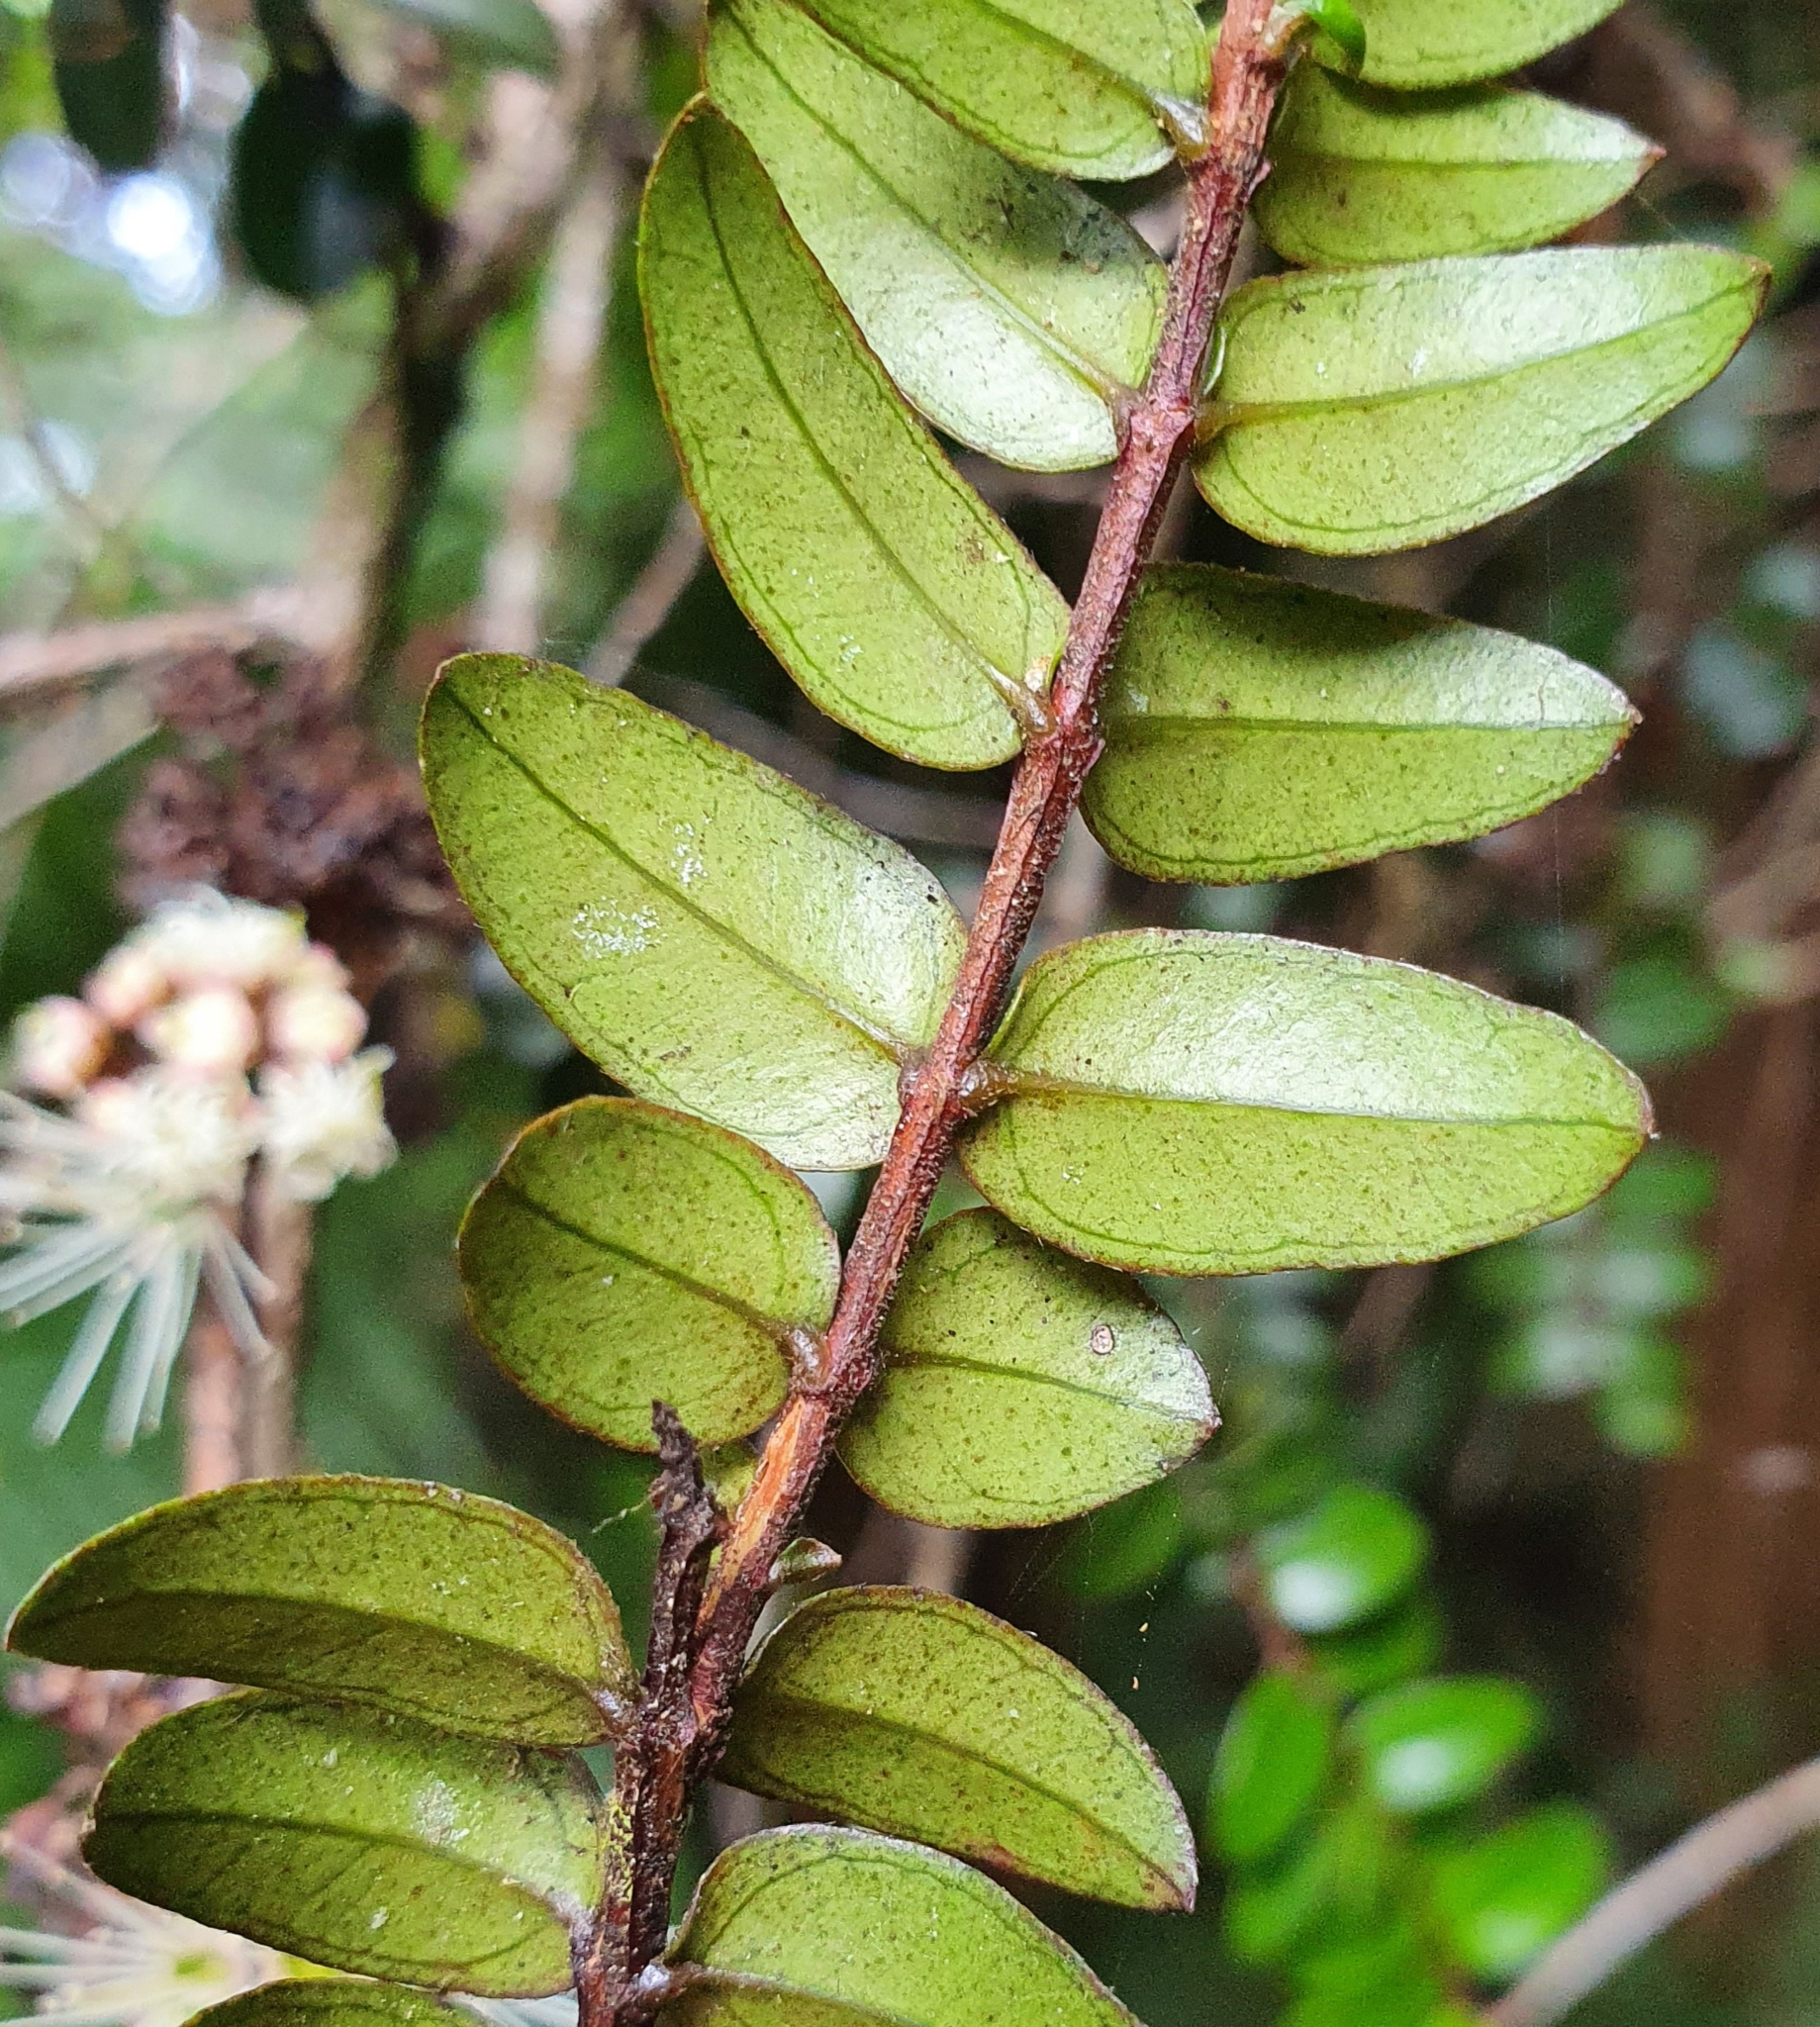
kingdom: Plantae
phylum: Tracheophyta
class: Magnoliopsida
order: Myrtales
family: Myrtaceae
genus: Metrosideros
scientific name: Metrosideros diffusa
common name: Small ratavine
